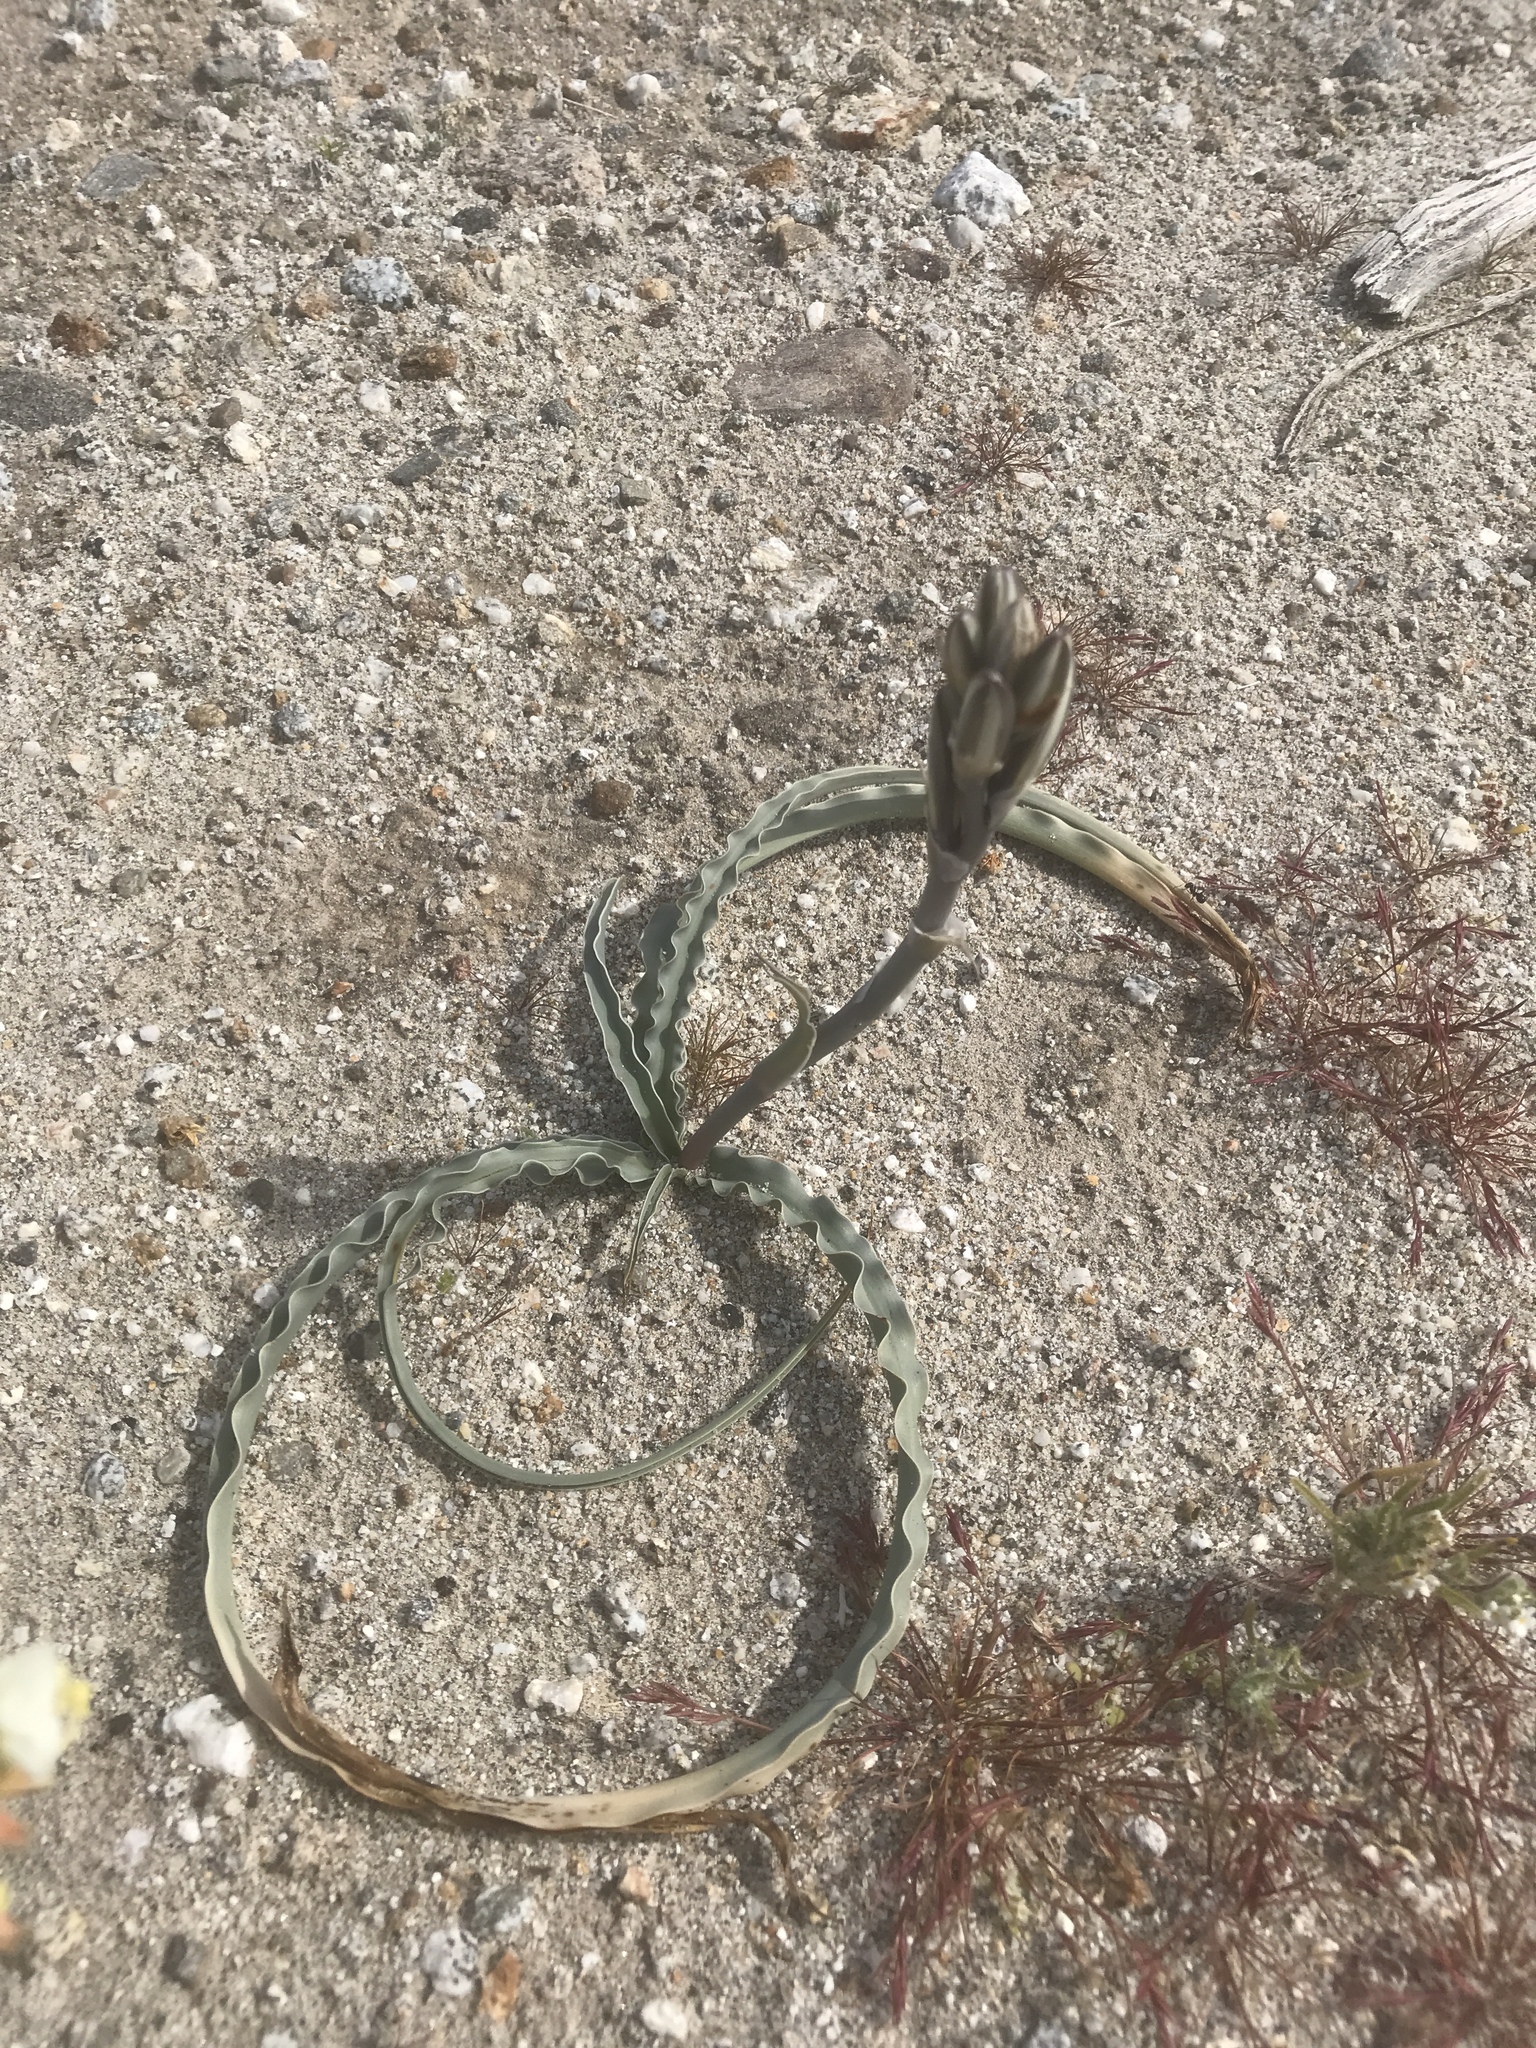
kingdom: Plantae
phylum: Tracheophyta
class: Liliopsida
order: Asparagales
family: Asparagaceae
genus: Hesperocallis
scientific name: Hesperocallis undulata
